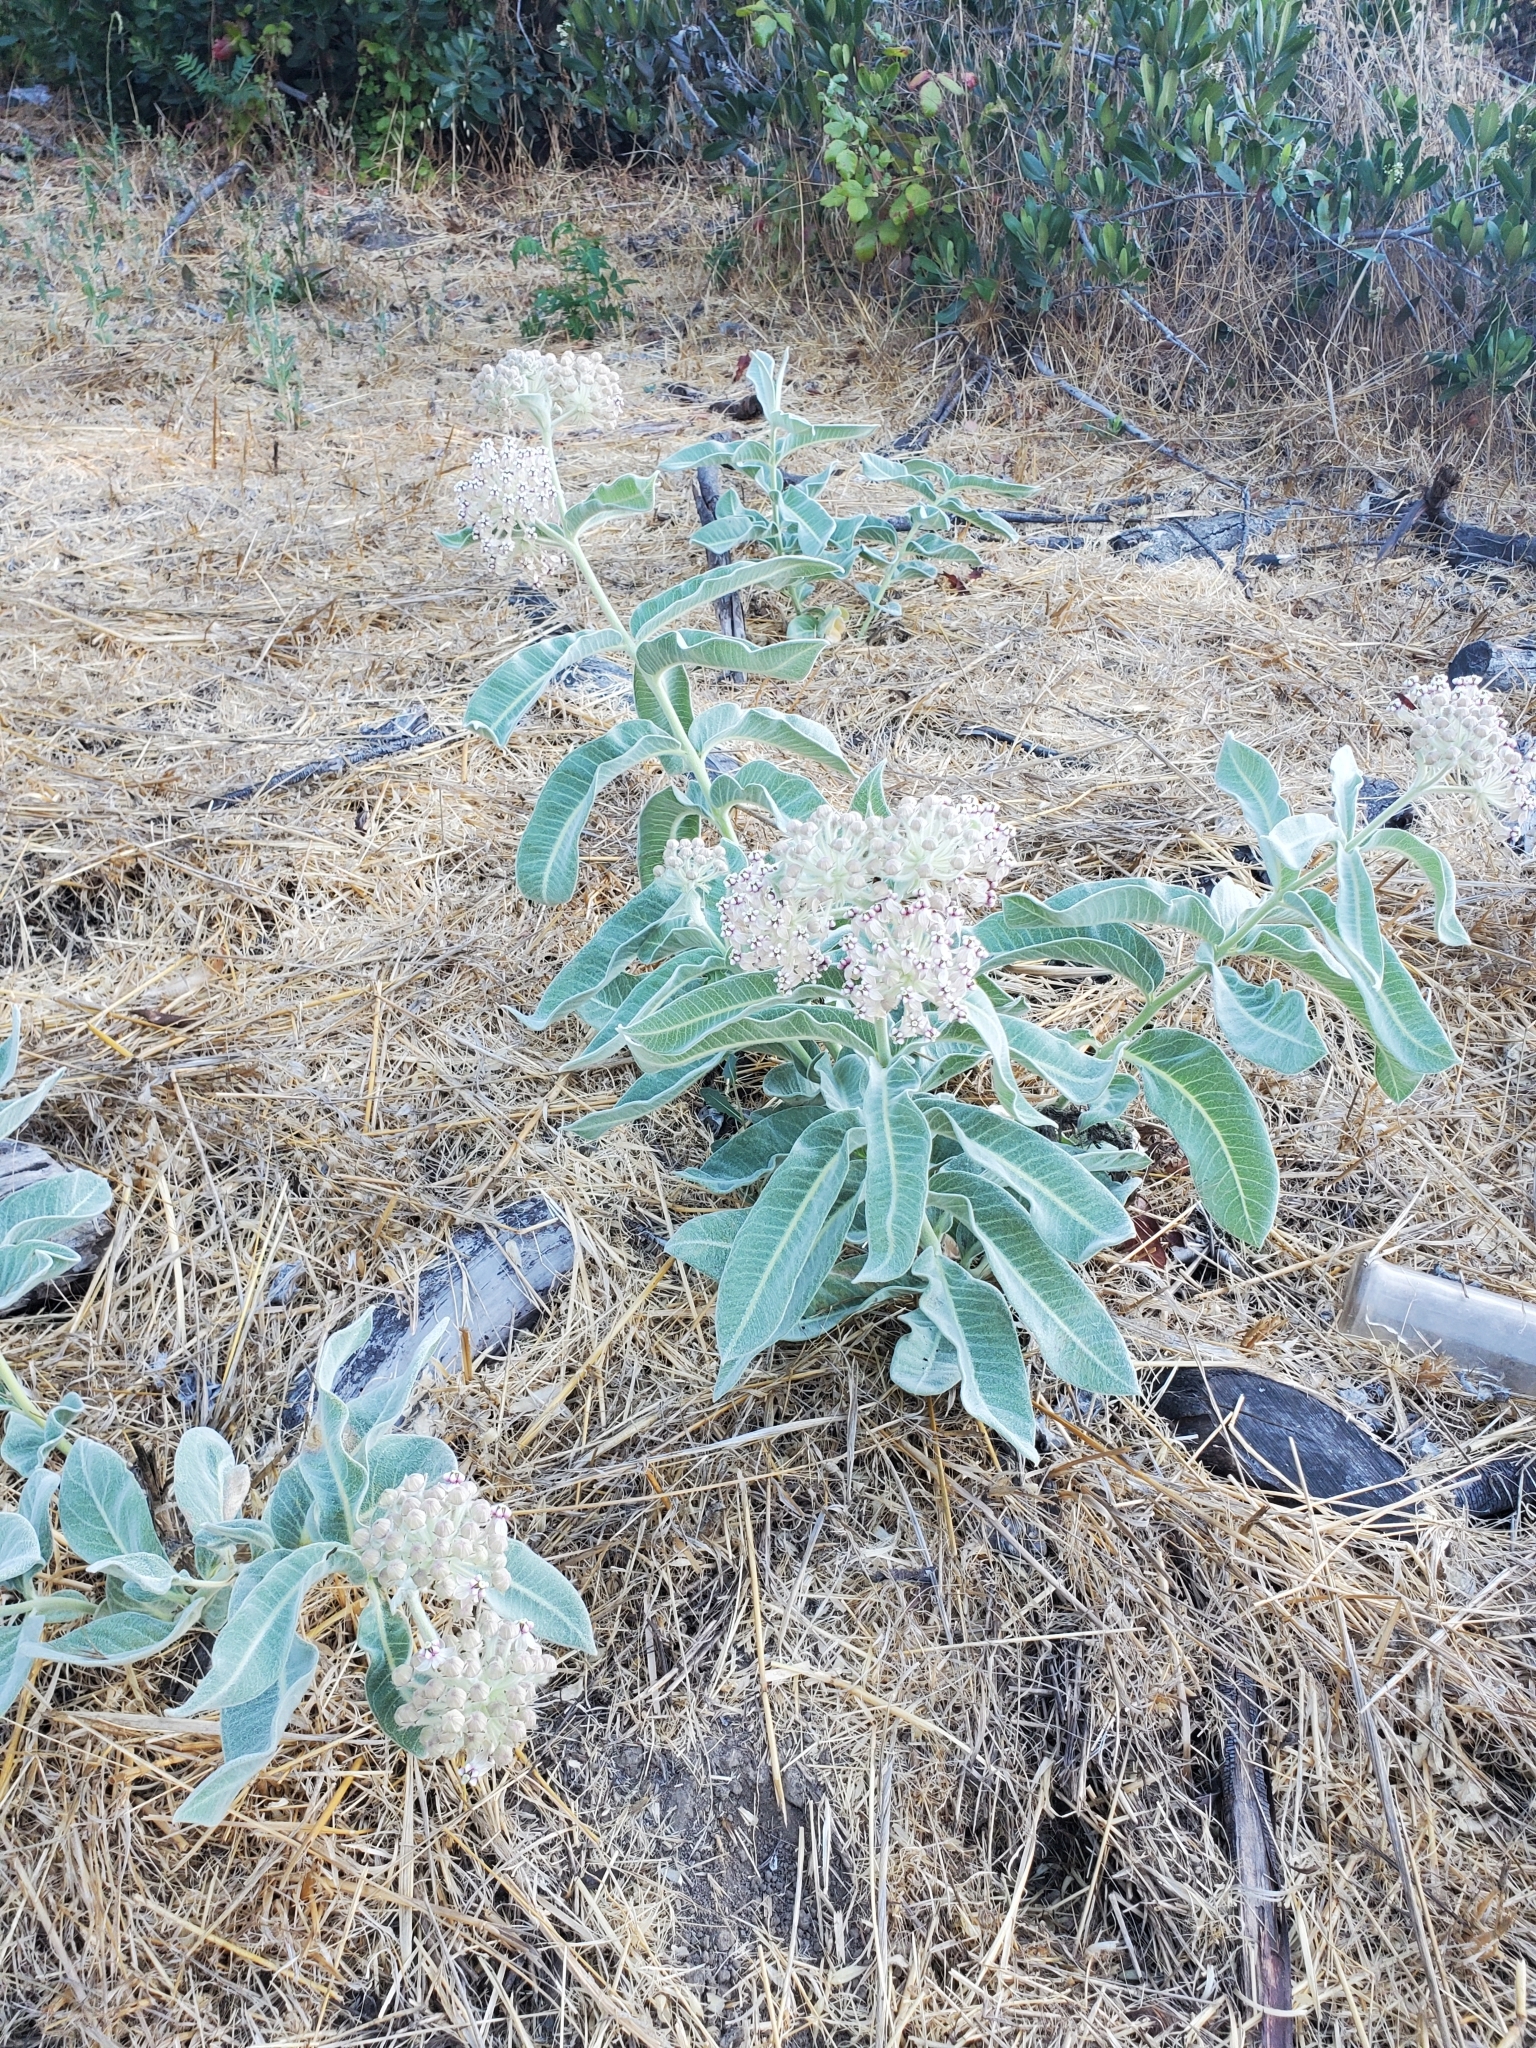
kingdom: Plantae
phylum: Tracheophyta
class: Magnoliopsida
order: Gentianales
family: Apocynaceae
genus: Asclepias
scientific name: Asclepias eriocarpa
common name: Indian milkweed
